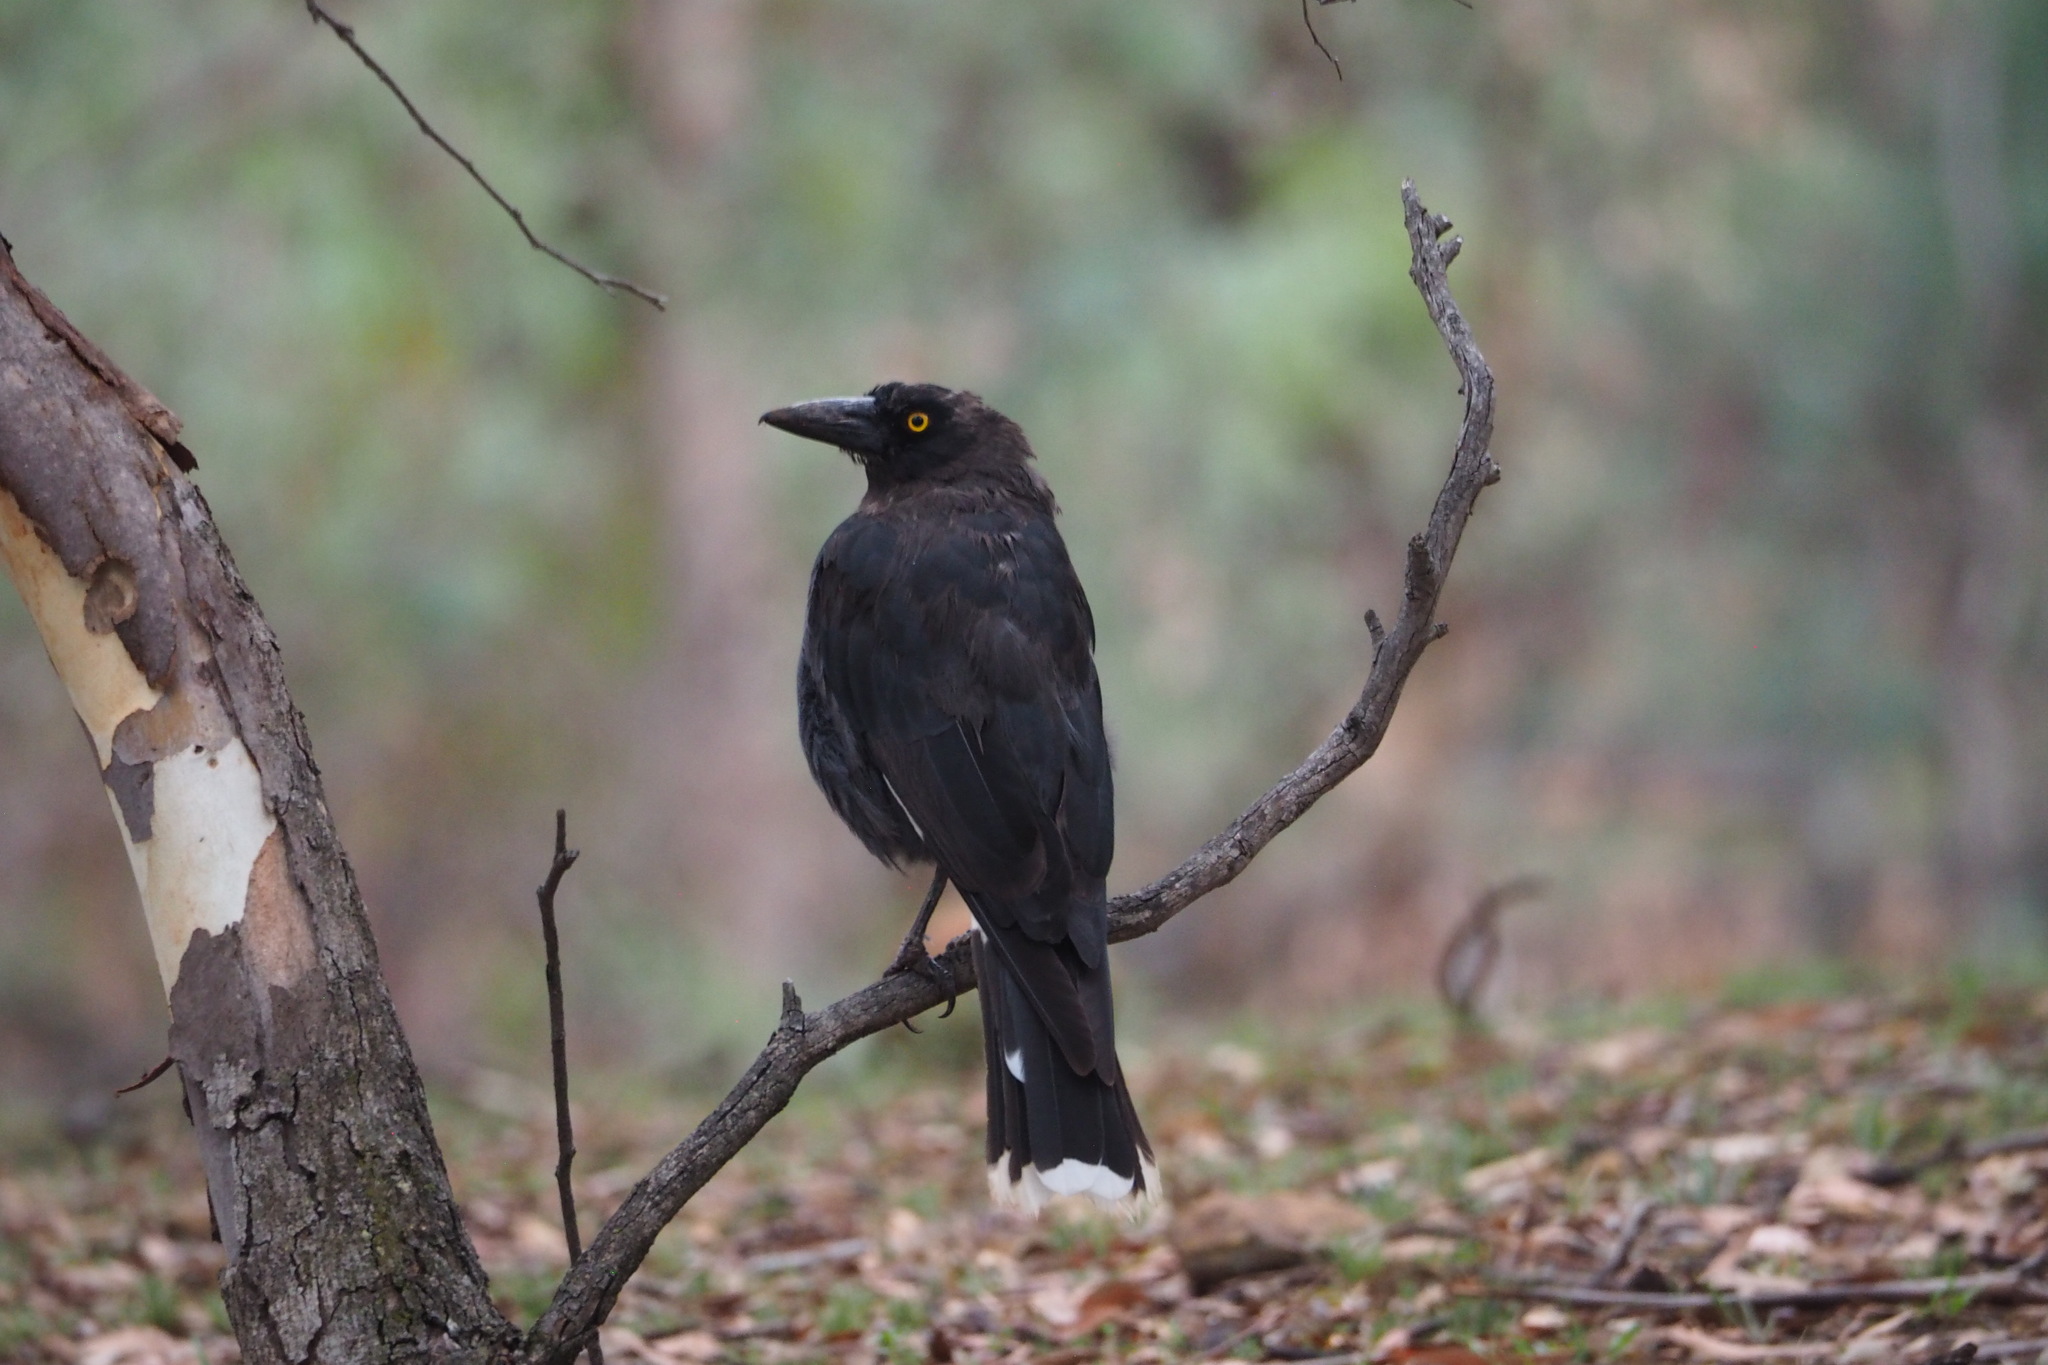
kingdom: Animalia
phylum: Chordata
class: Aves
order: Passeriformes
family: Cracticidae
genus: Strepera
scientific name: Strepera graculina
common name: Pied currawong
